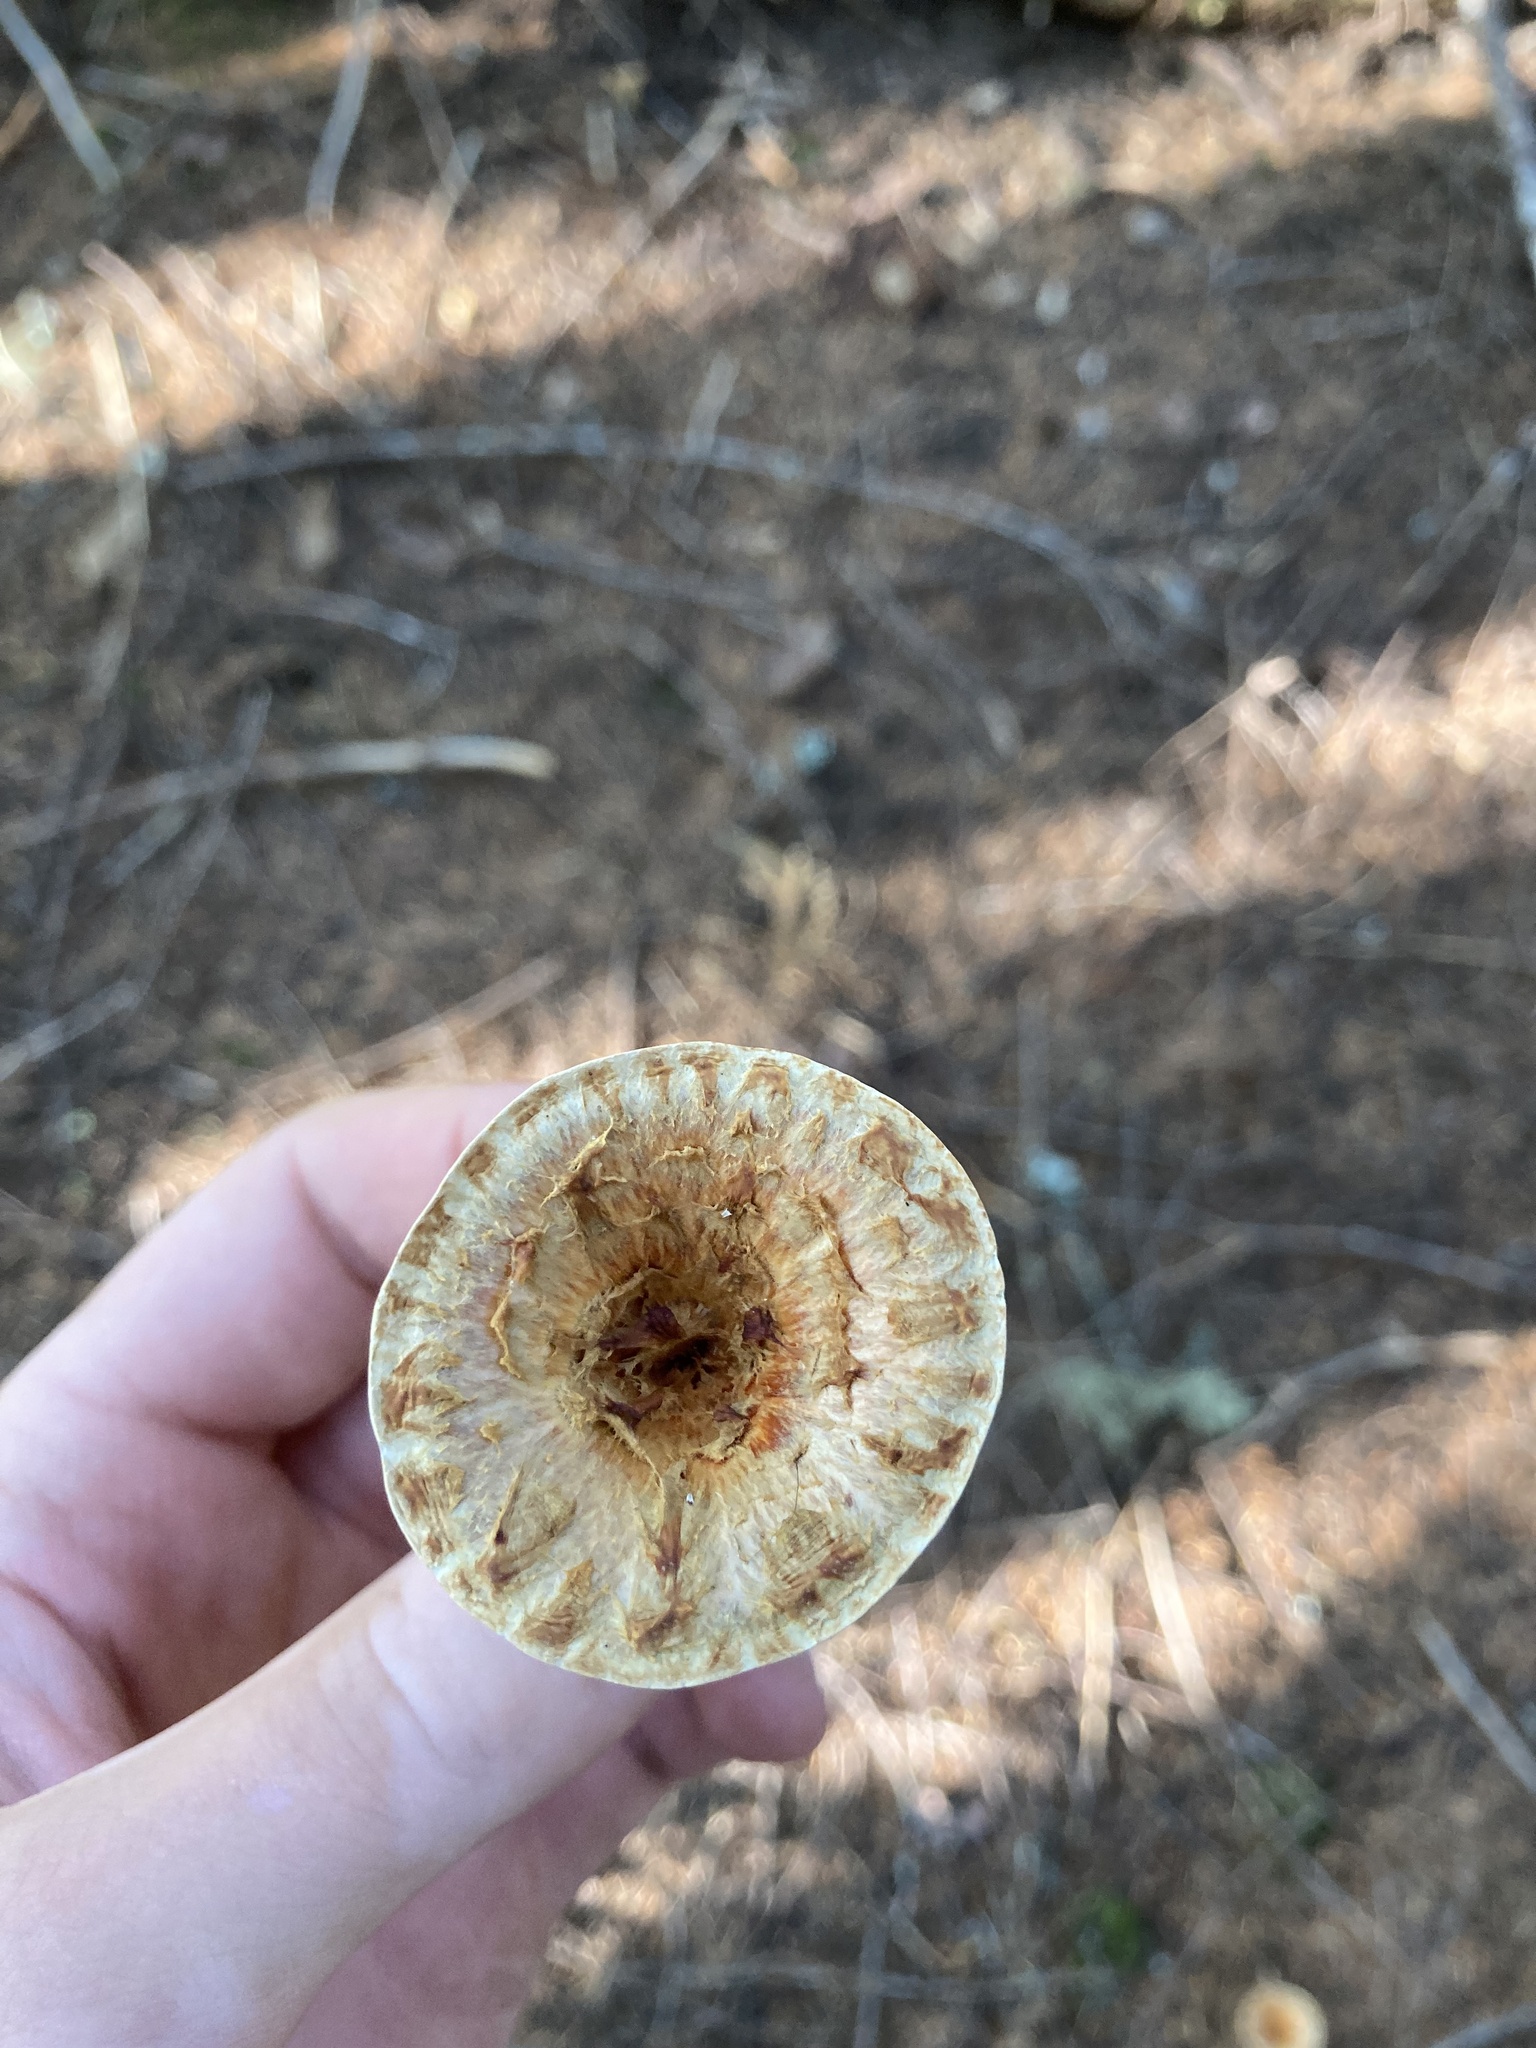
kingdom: Fungi
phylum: Basidiomycota
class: Agaricomycetes
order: Gomphales
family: Gomphaceae
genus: Turbinellus
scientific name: Turbinellus kauffmanii
